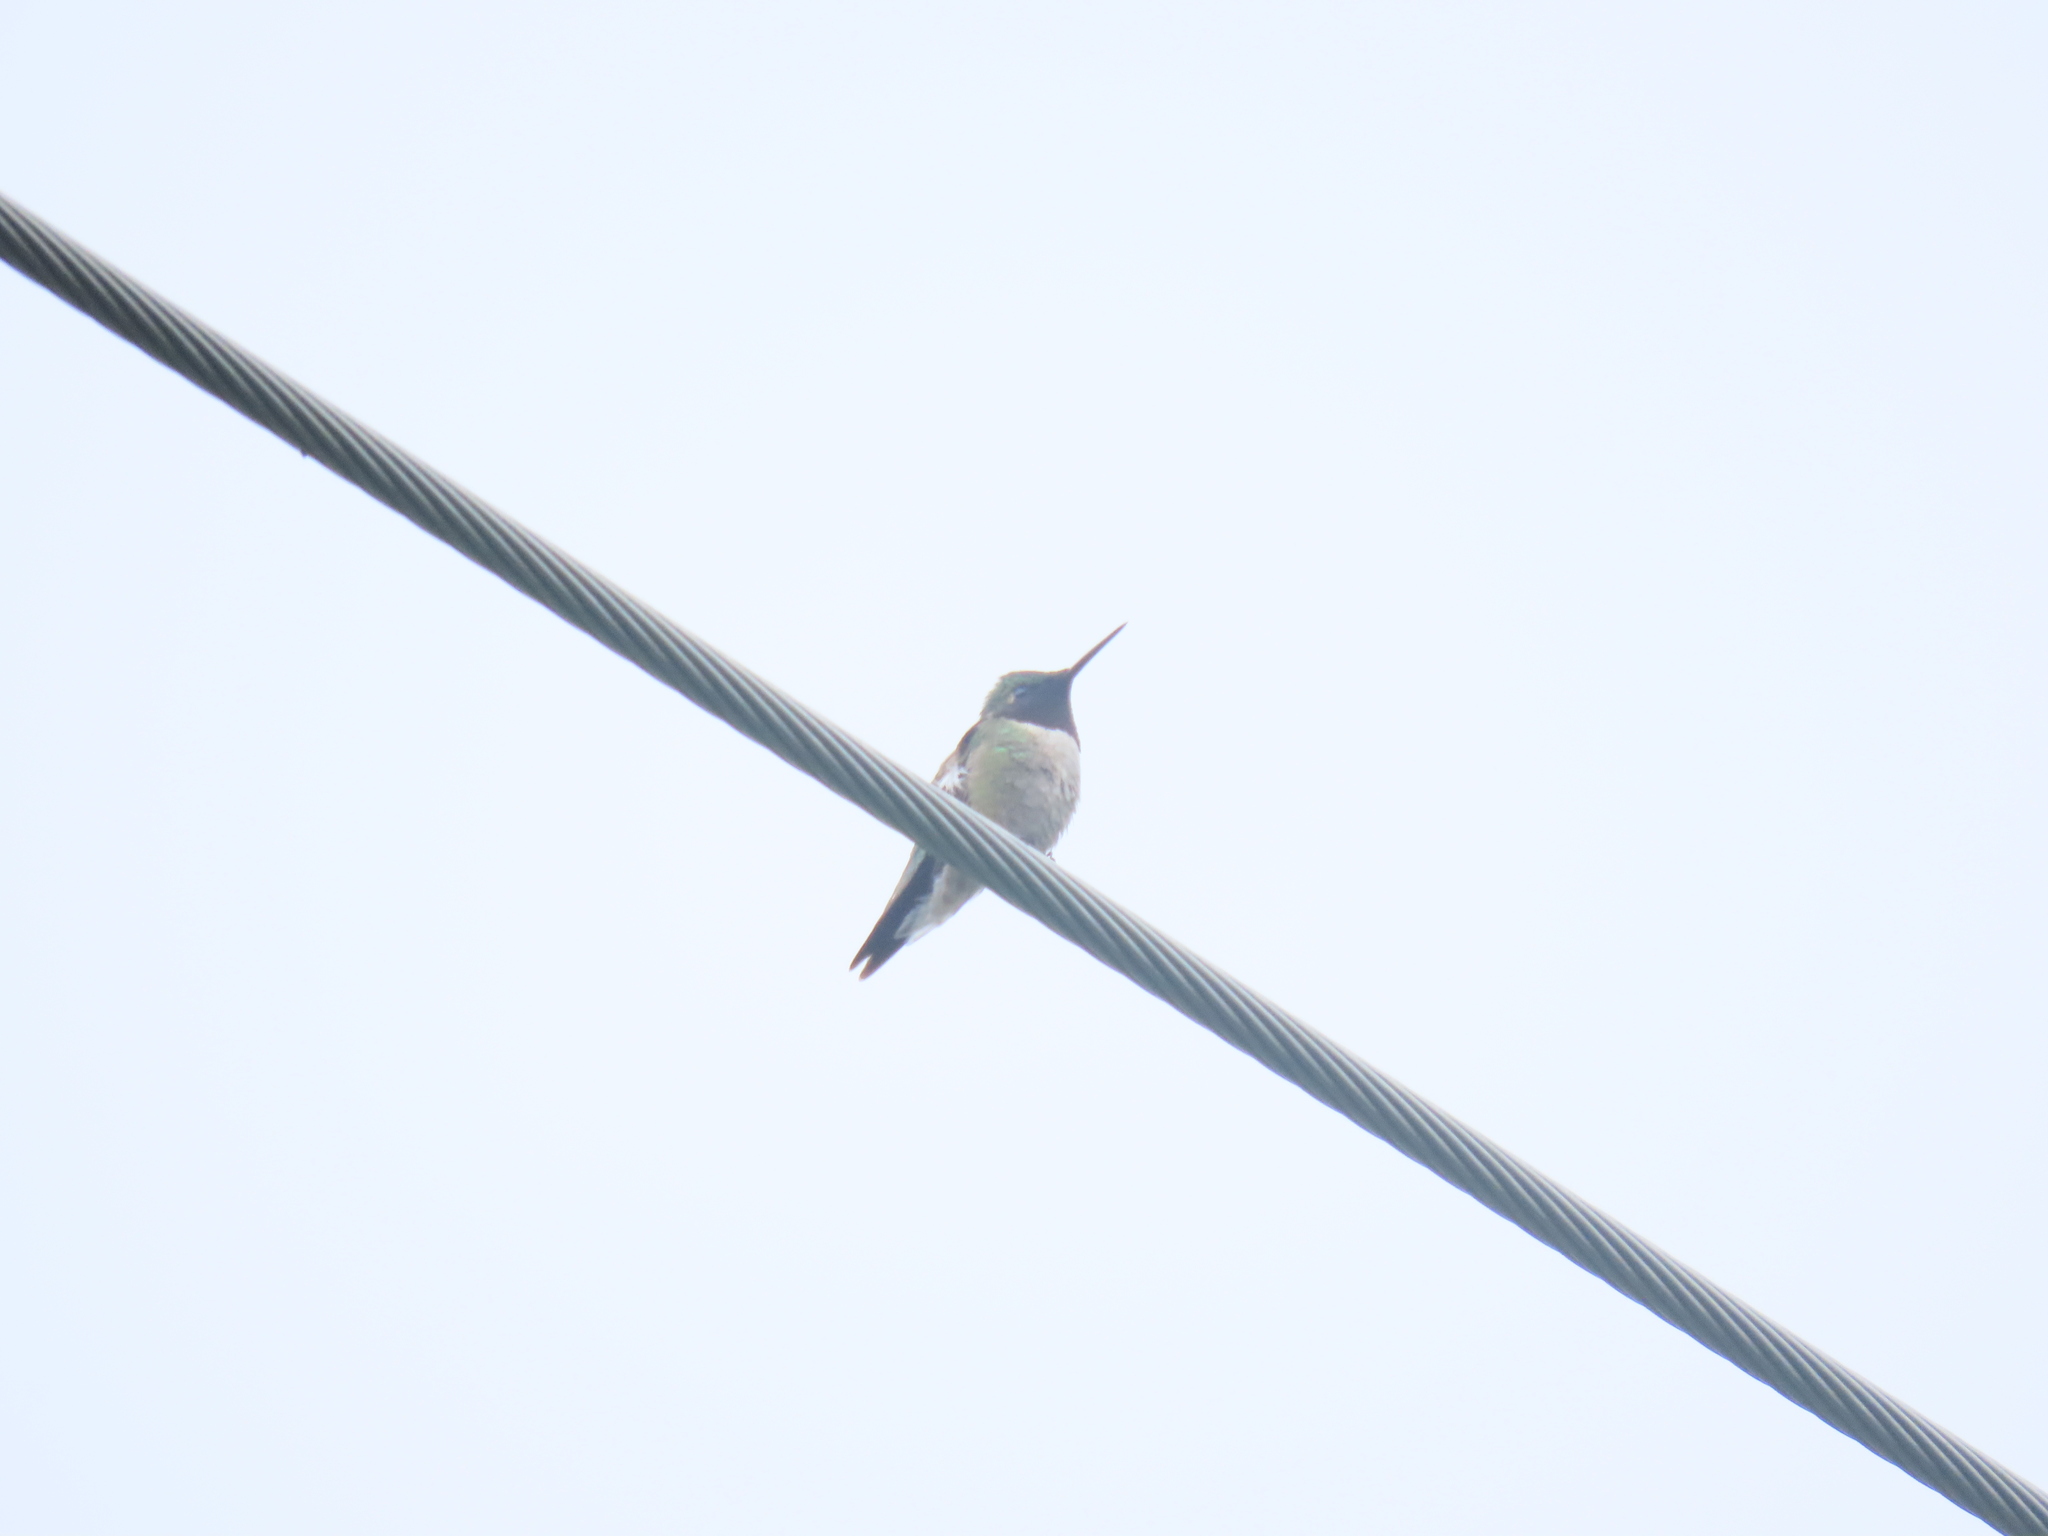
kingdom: Animalia
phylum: Chordata
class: Aves
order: Apodiformes
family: Trochilidae
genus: Archilochus
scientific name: Archilochus colubris
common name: Ruby-throated hummingbird
